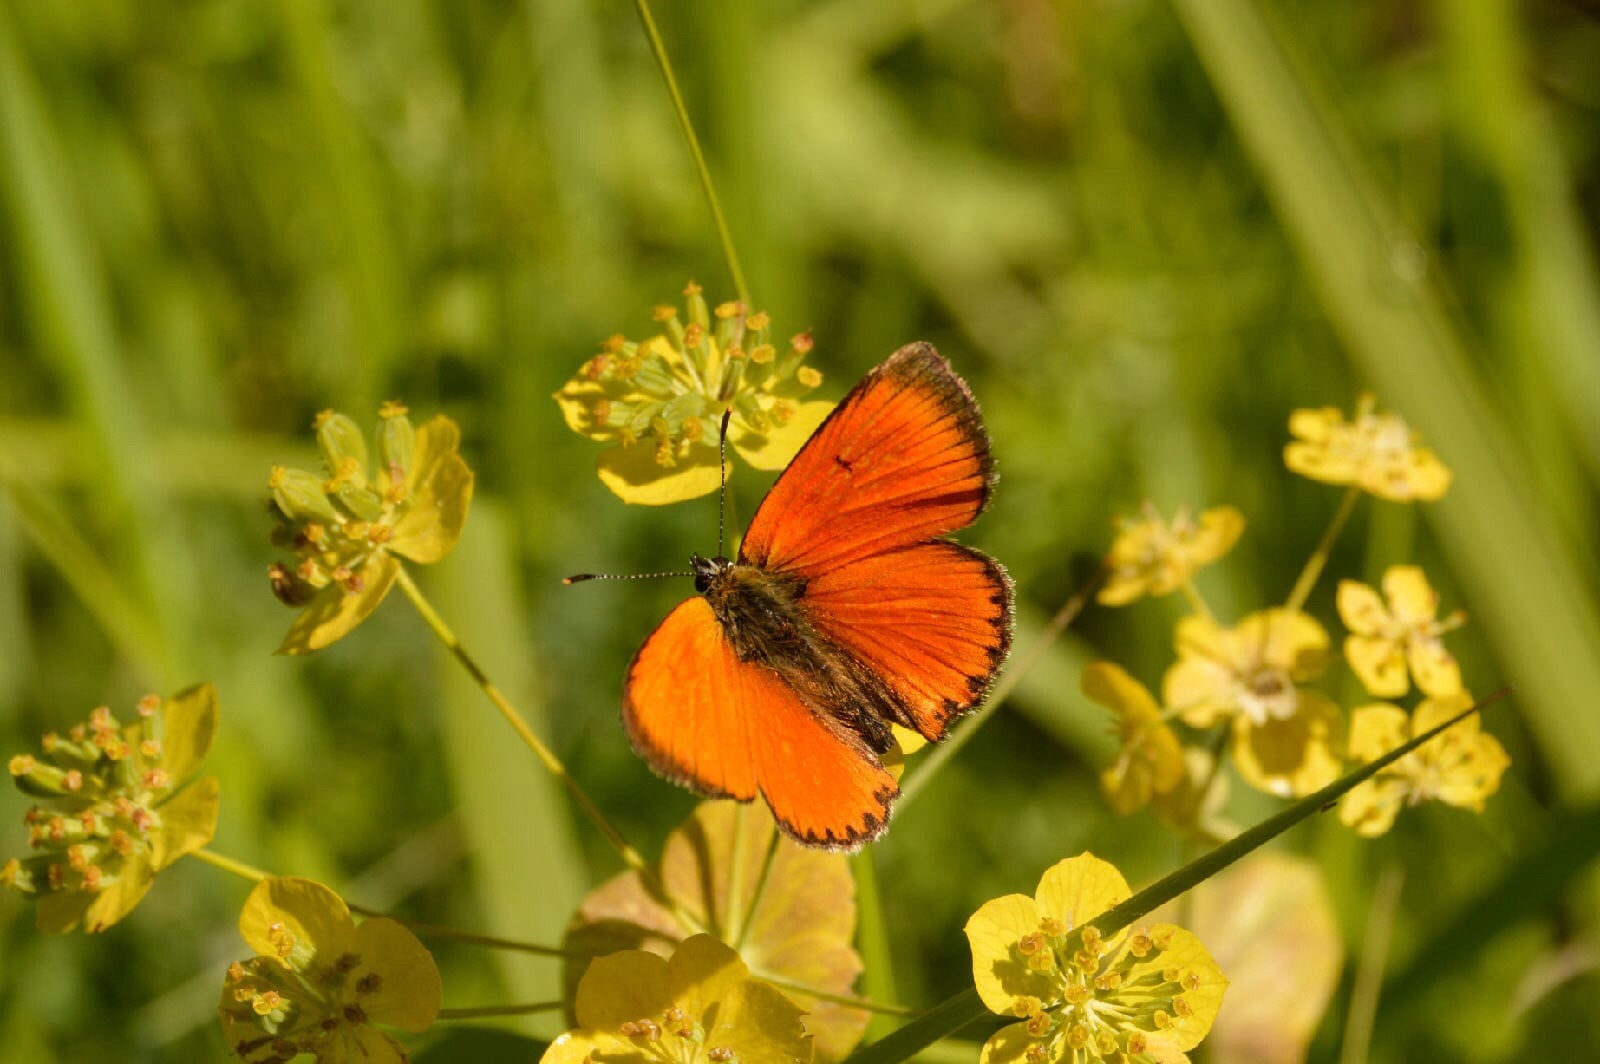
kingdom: Animalia
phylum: Arthropoda
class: Insecta
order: Lepidoptera
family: Lycaenidae
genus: Lycaena
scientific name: Lycaena virgaureae
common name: Scarce copper
